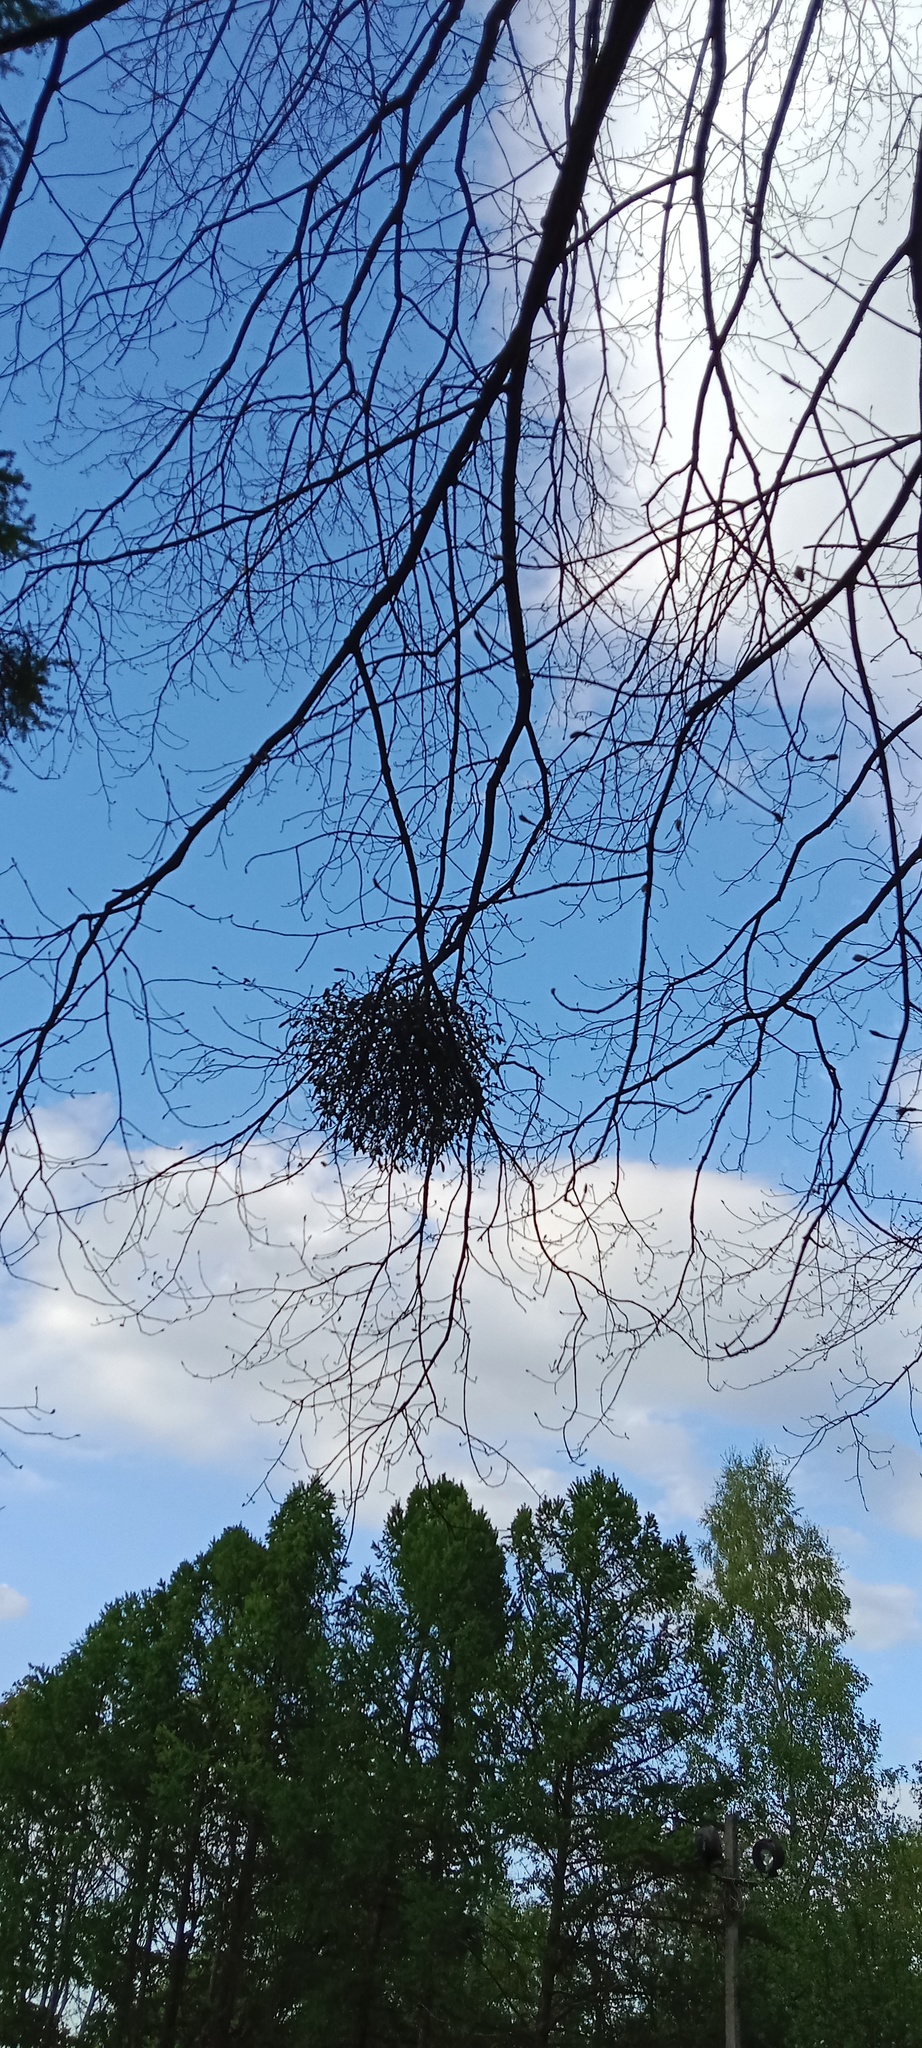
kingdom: Plantae
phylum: Tracheophyta
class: Magnoliopsida
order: Santalales
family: Viscaceae
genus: Viscum
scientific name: Viscum album
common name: Mistletoe
